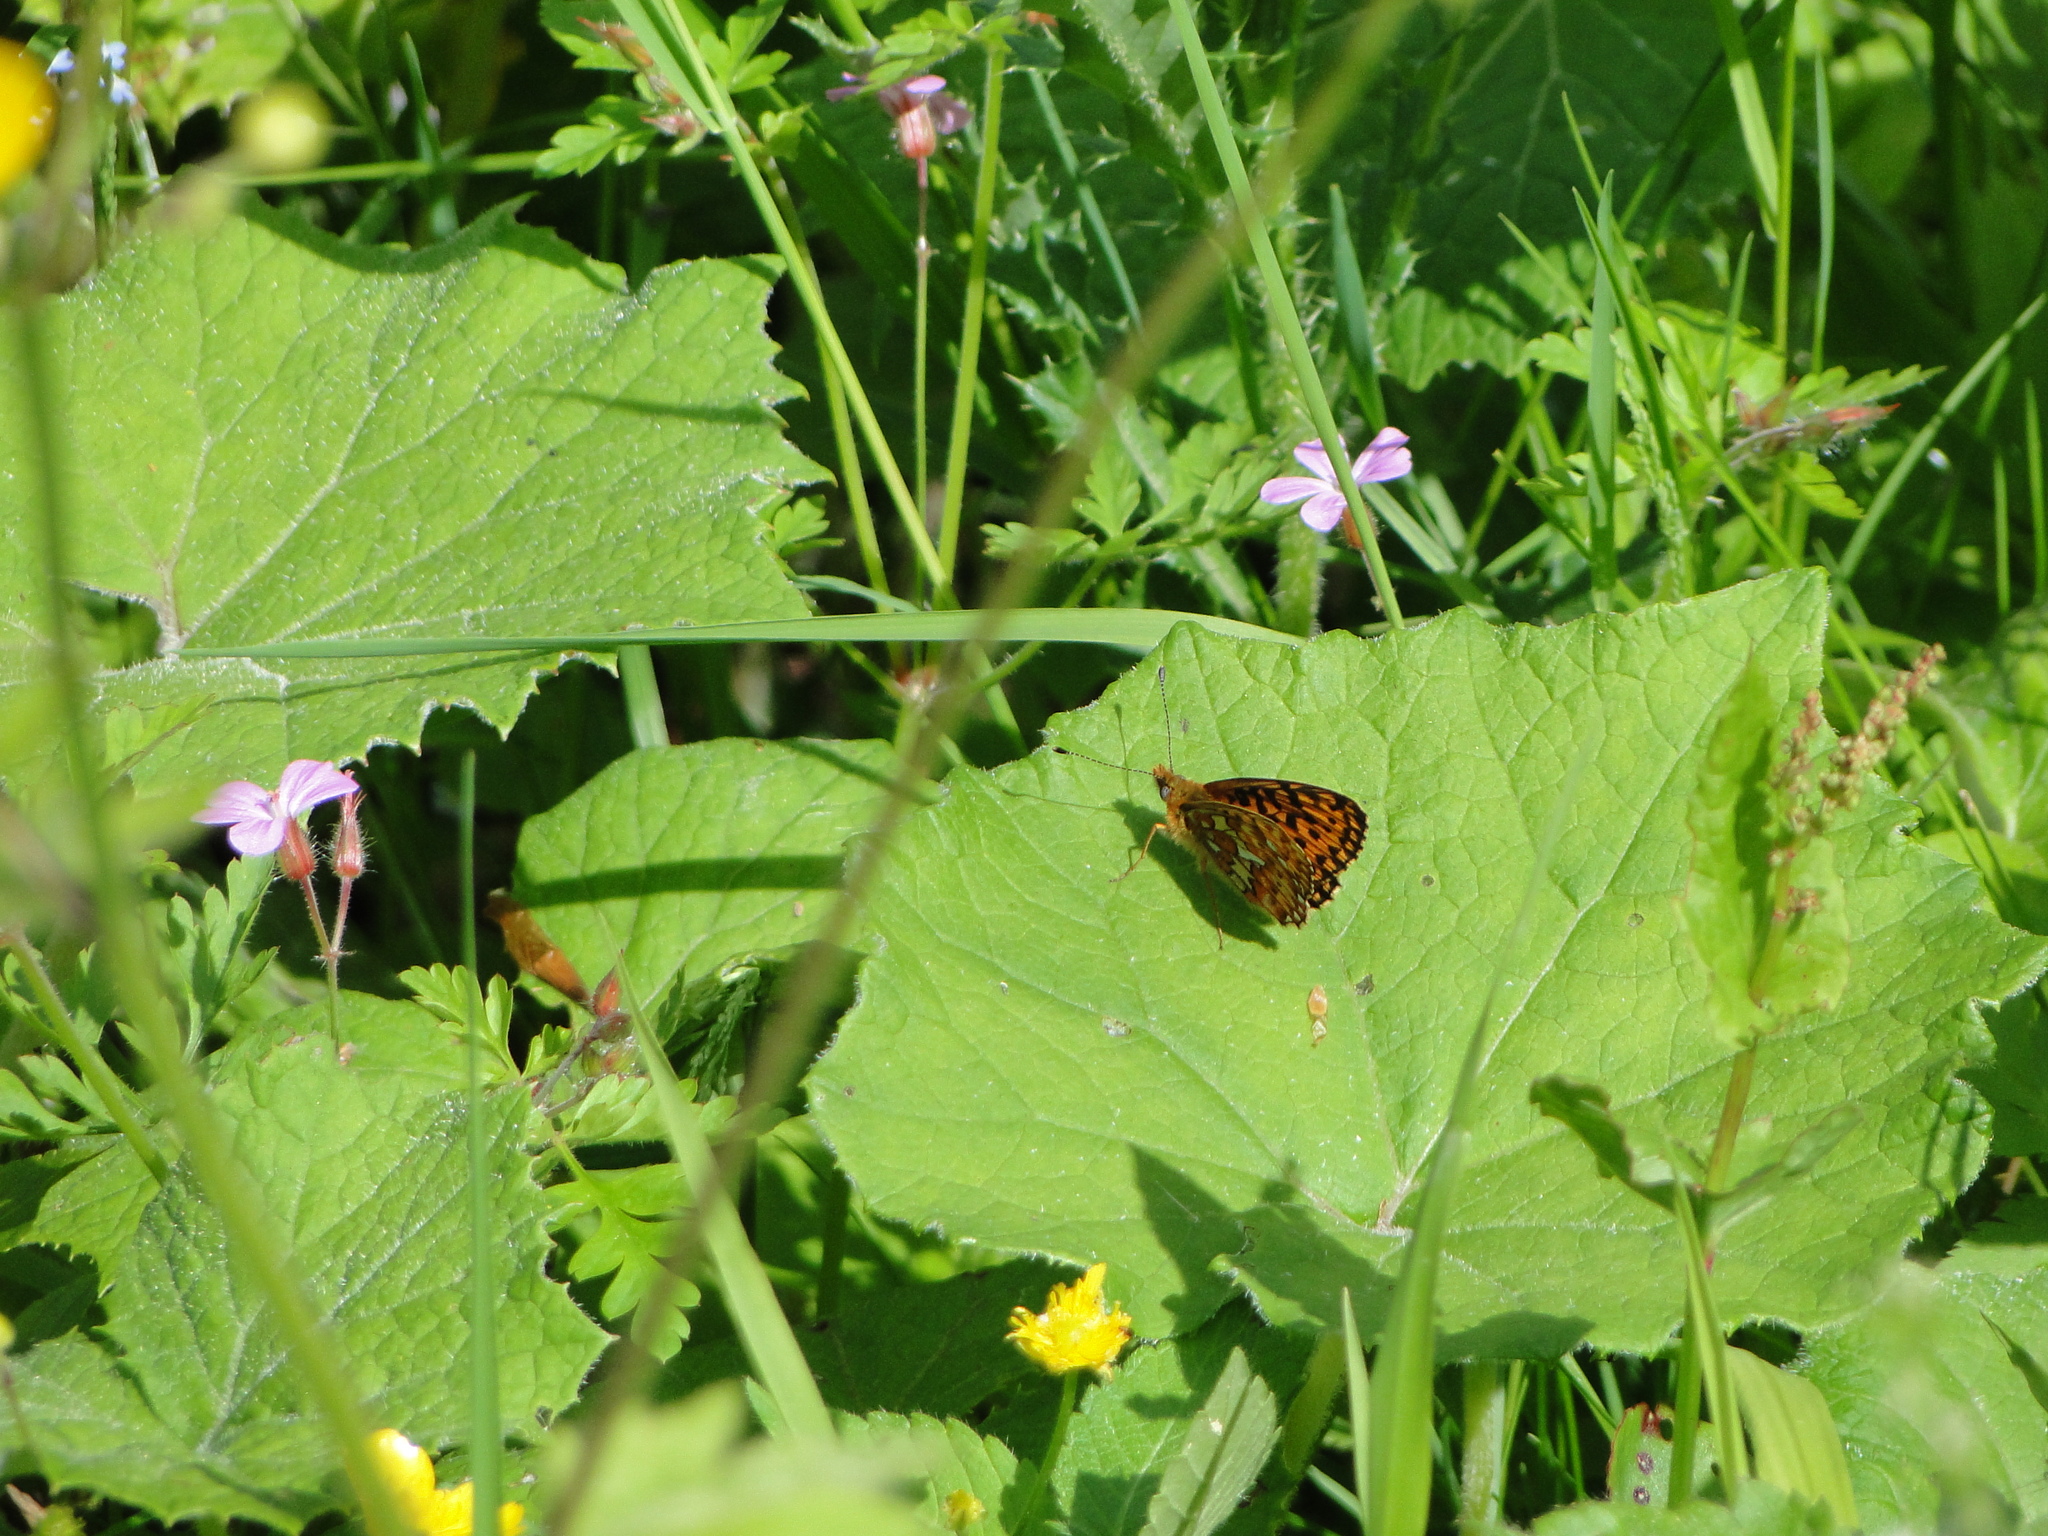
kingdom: Animalia
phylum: Arthropoda
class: Insecta
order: Lepidoptera
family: Nymphalidae
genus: Clossiana
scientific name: Clossiana euphrosyne
